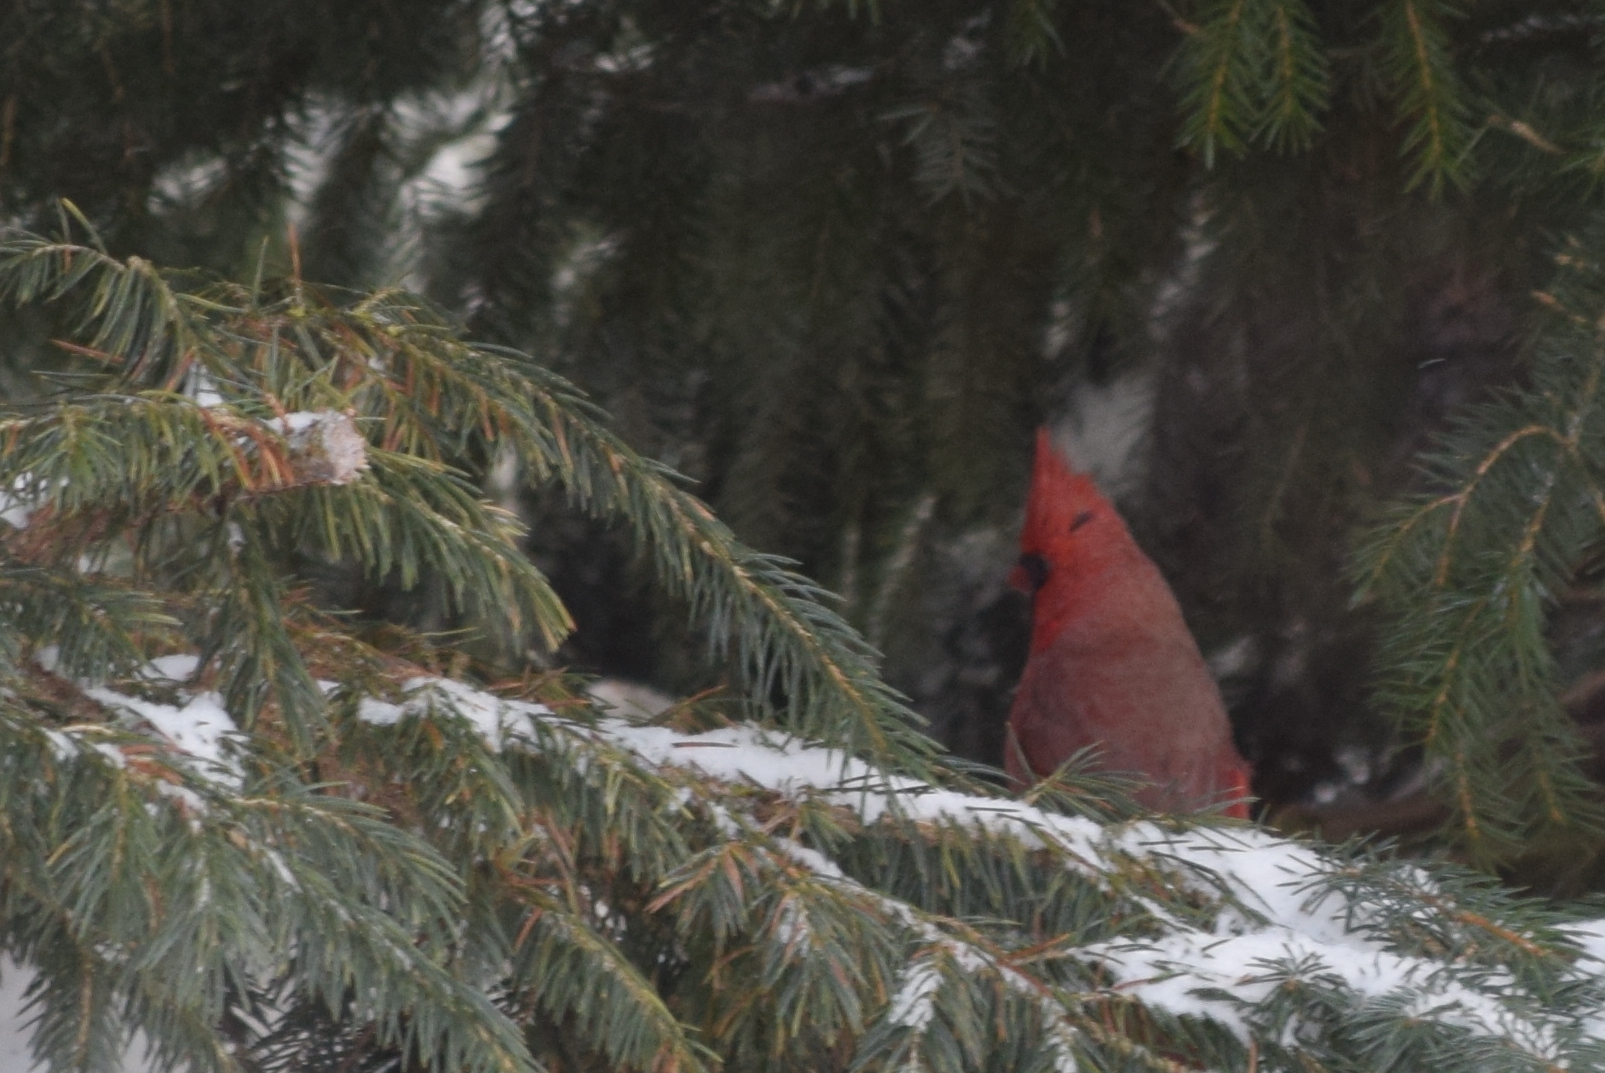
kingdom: Animalia
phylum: Chordata
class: Aves
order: Passeriformes
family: Cardinalidae
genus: Cardinalis
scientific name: Cardinalis cardinalis
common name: Northern cardinal
